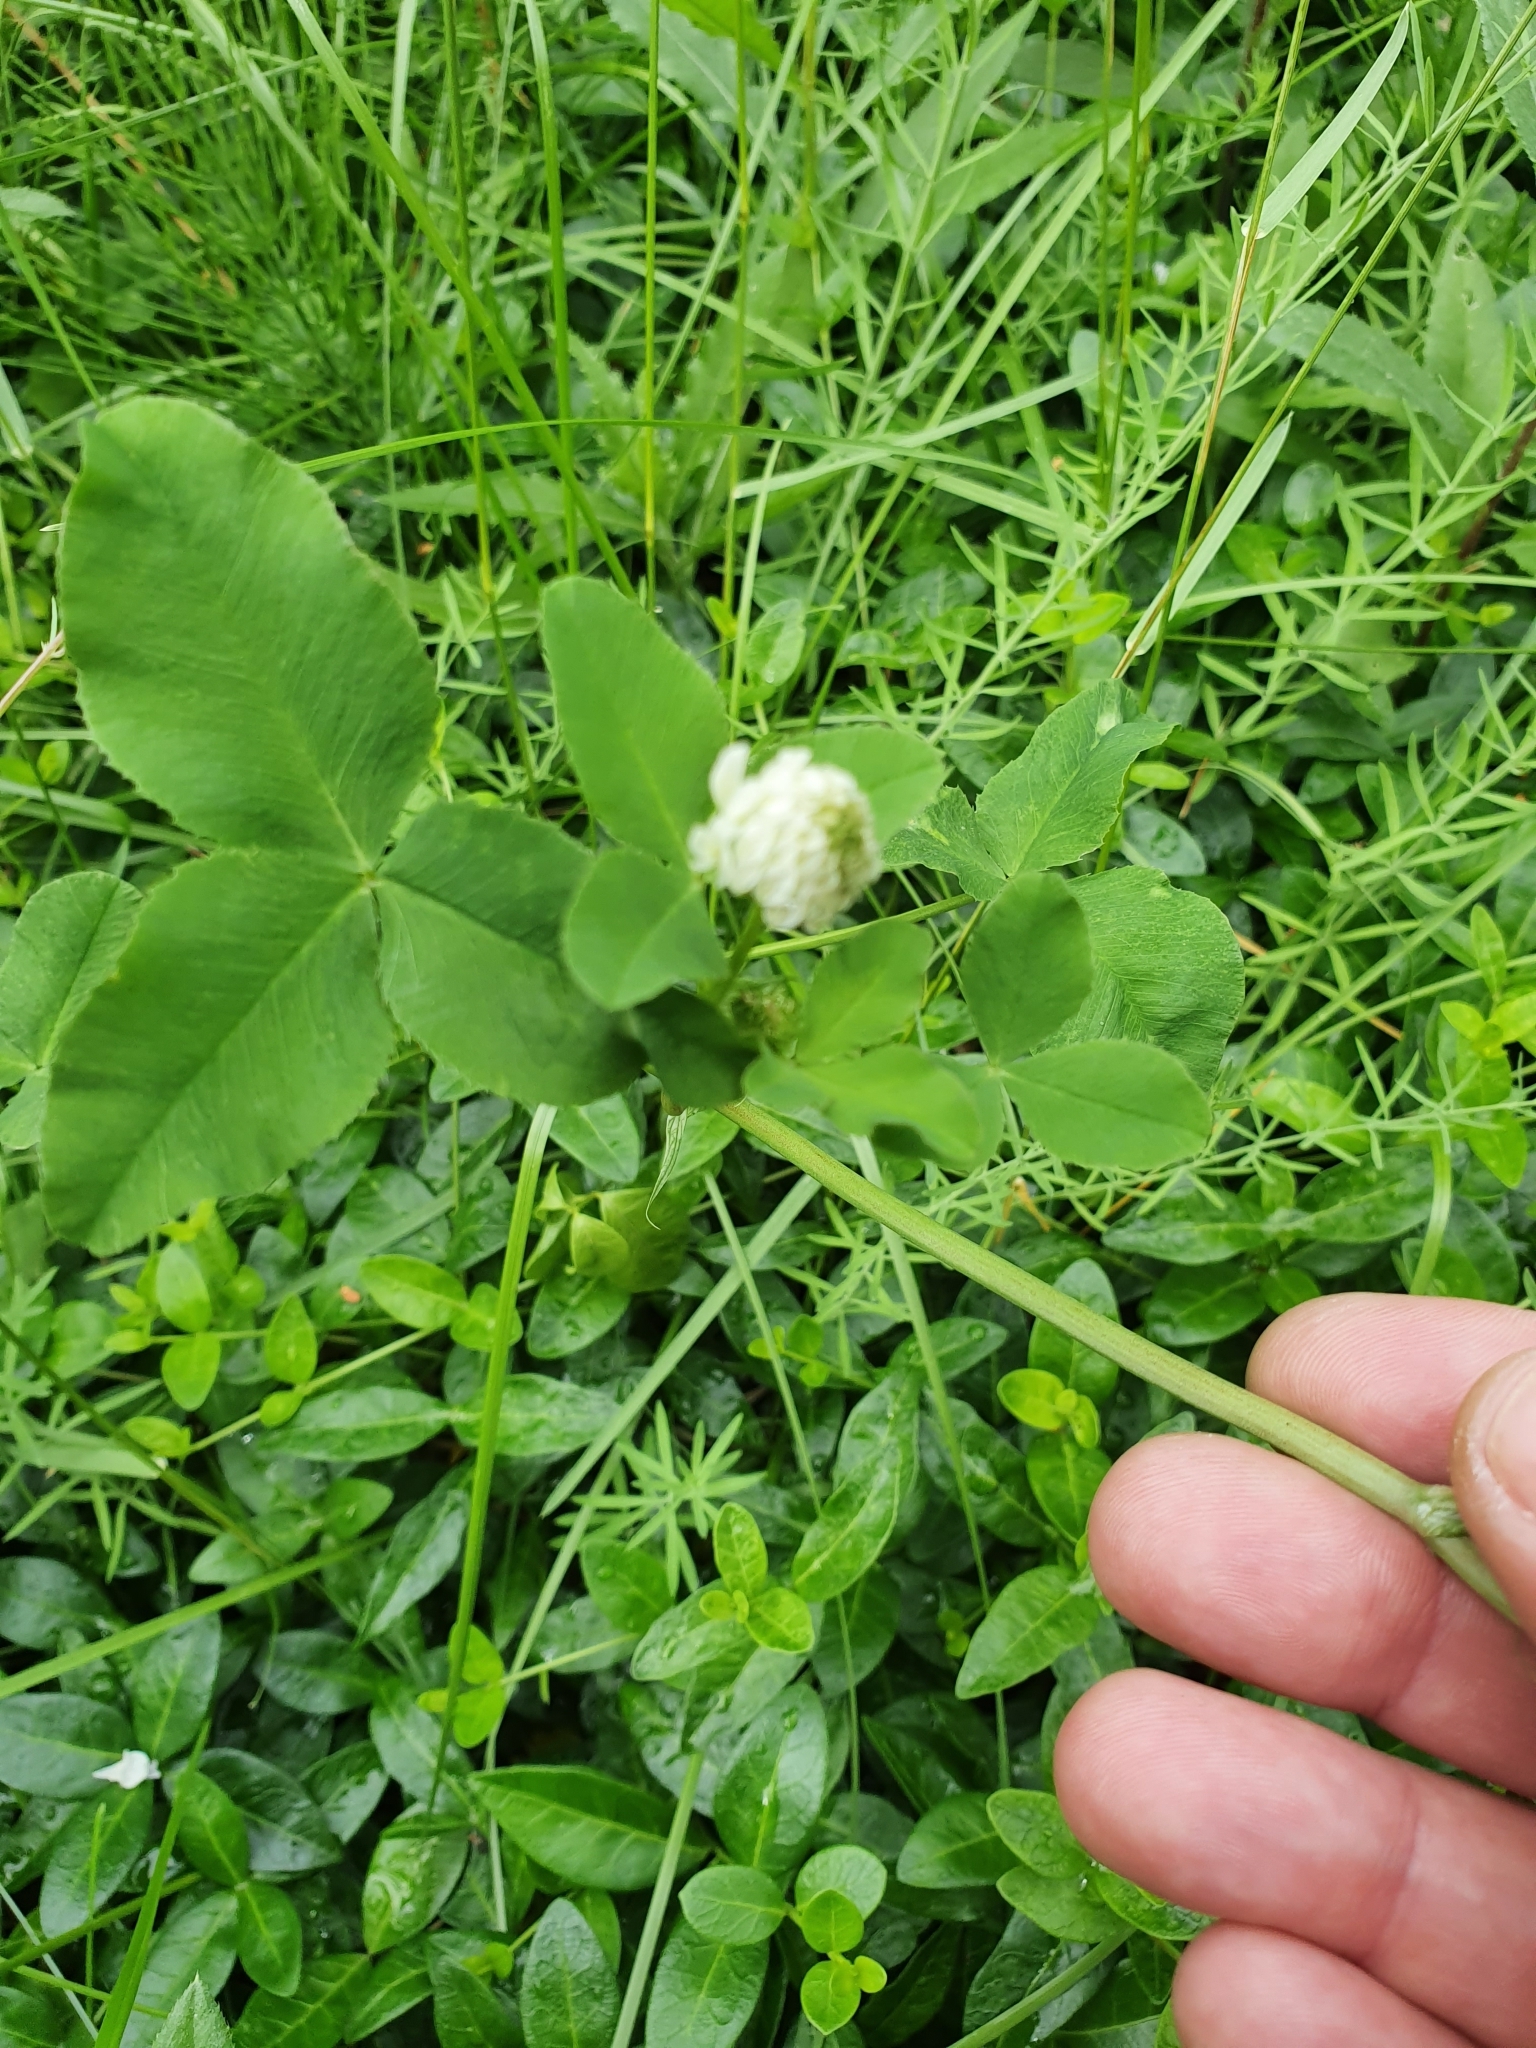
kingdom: Plantae
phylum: Tracheophyta
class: Magnoliopsida
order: Fabales
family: Fabaceae
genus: Trifolium
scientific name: Trifolium hybridum
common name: Alsike clover
